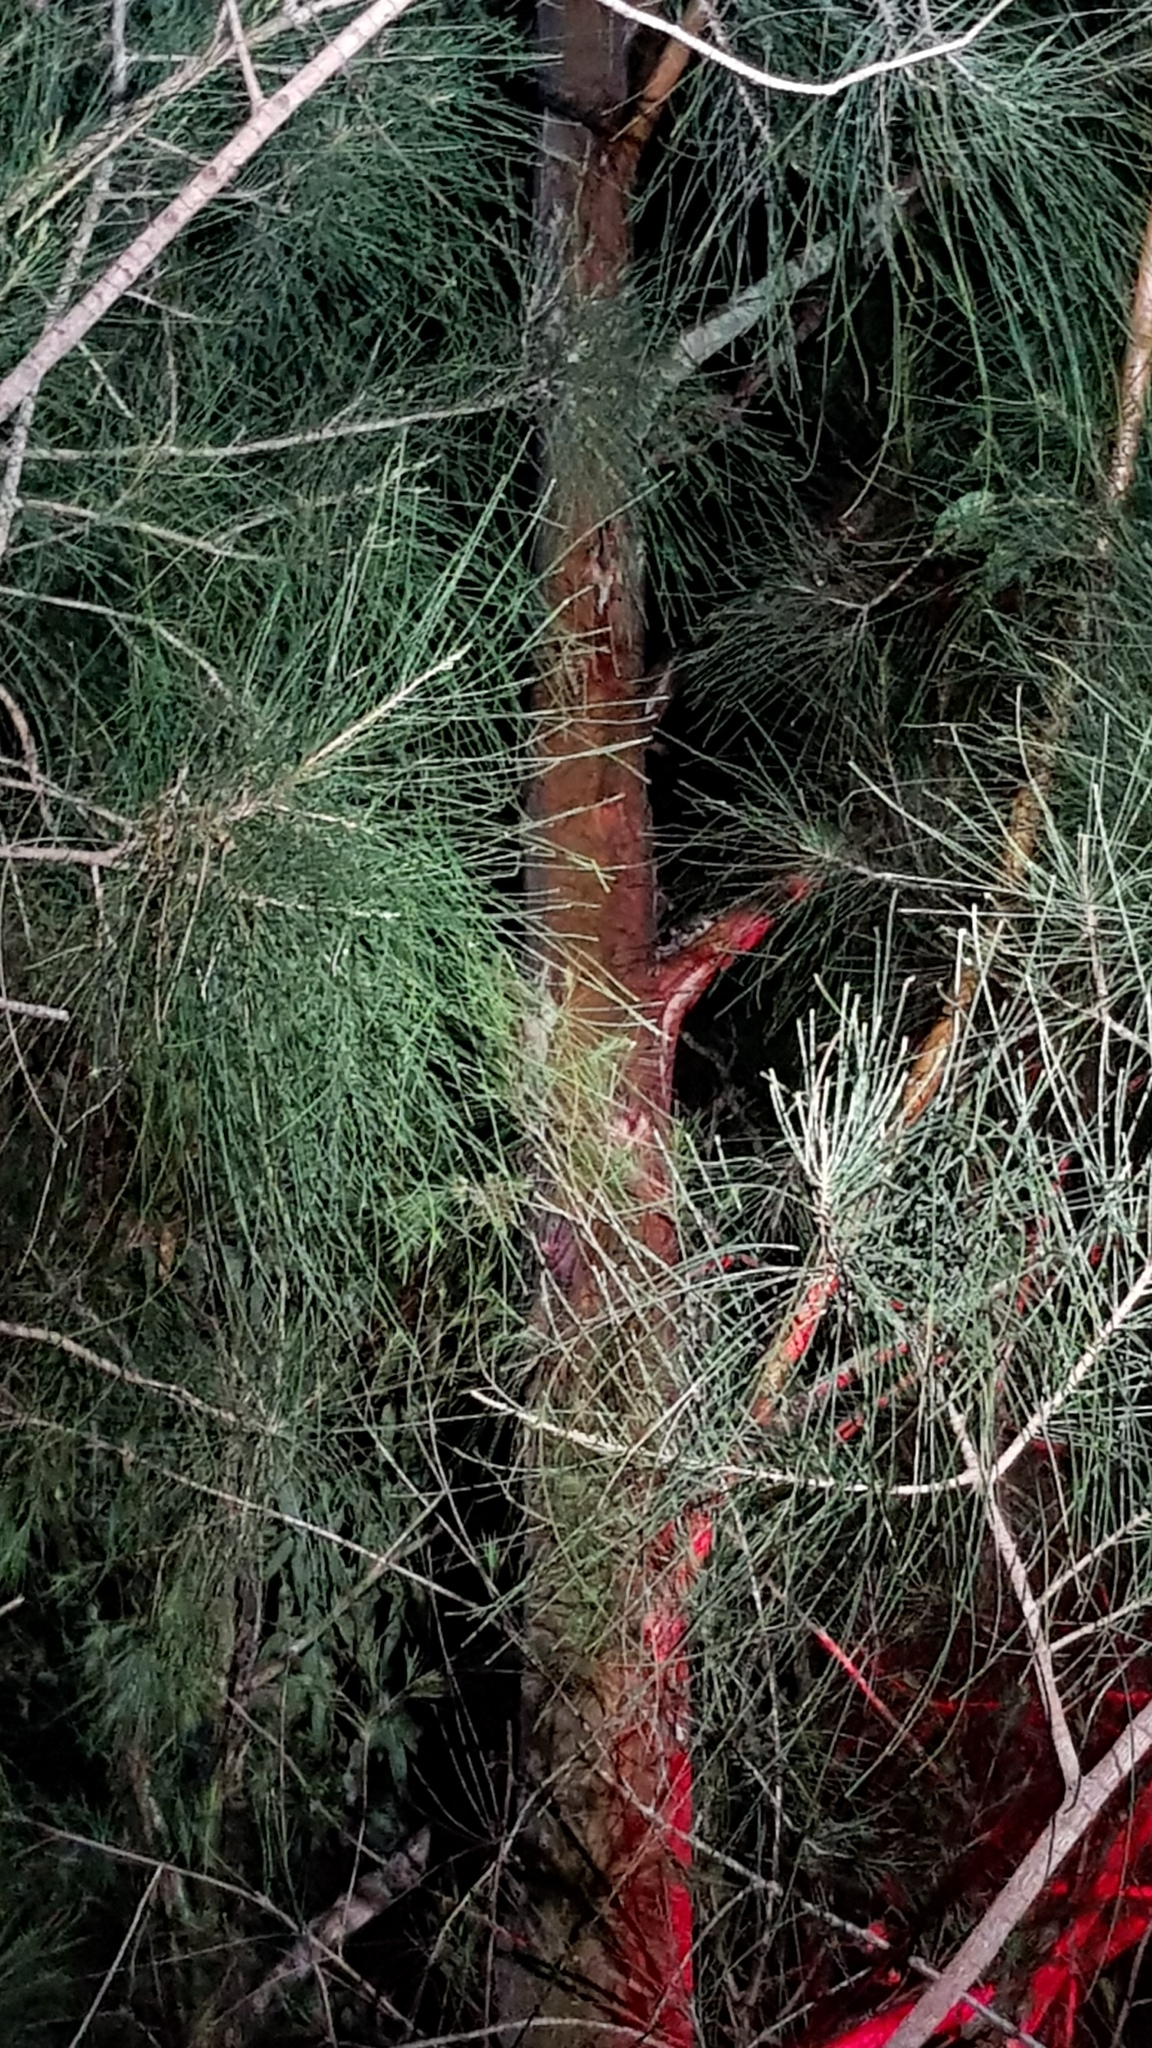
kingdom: Animalia
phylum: Chordata
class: Mammalia
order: Diprotodontia
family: Petauridae
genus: Petaurus
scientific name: Petaurus breviceps
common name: Sugar glider
